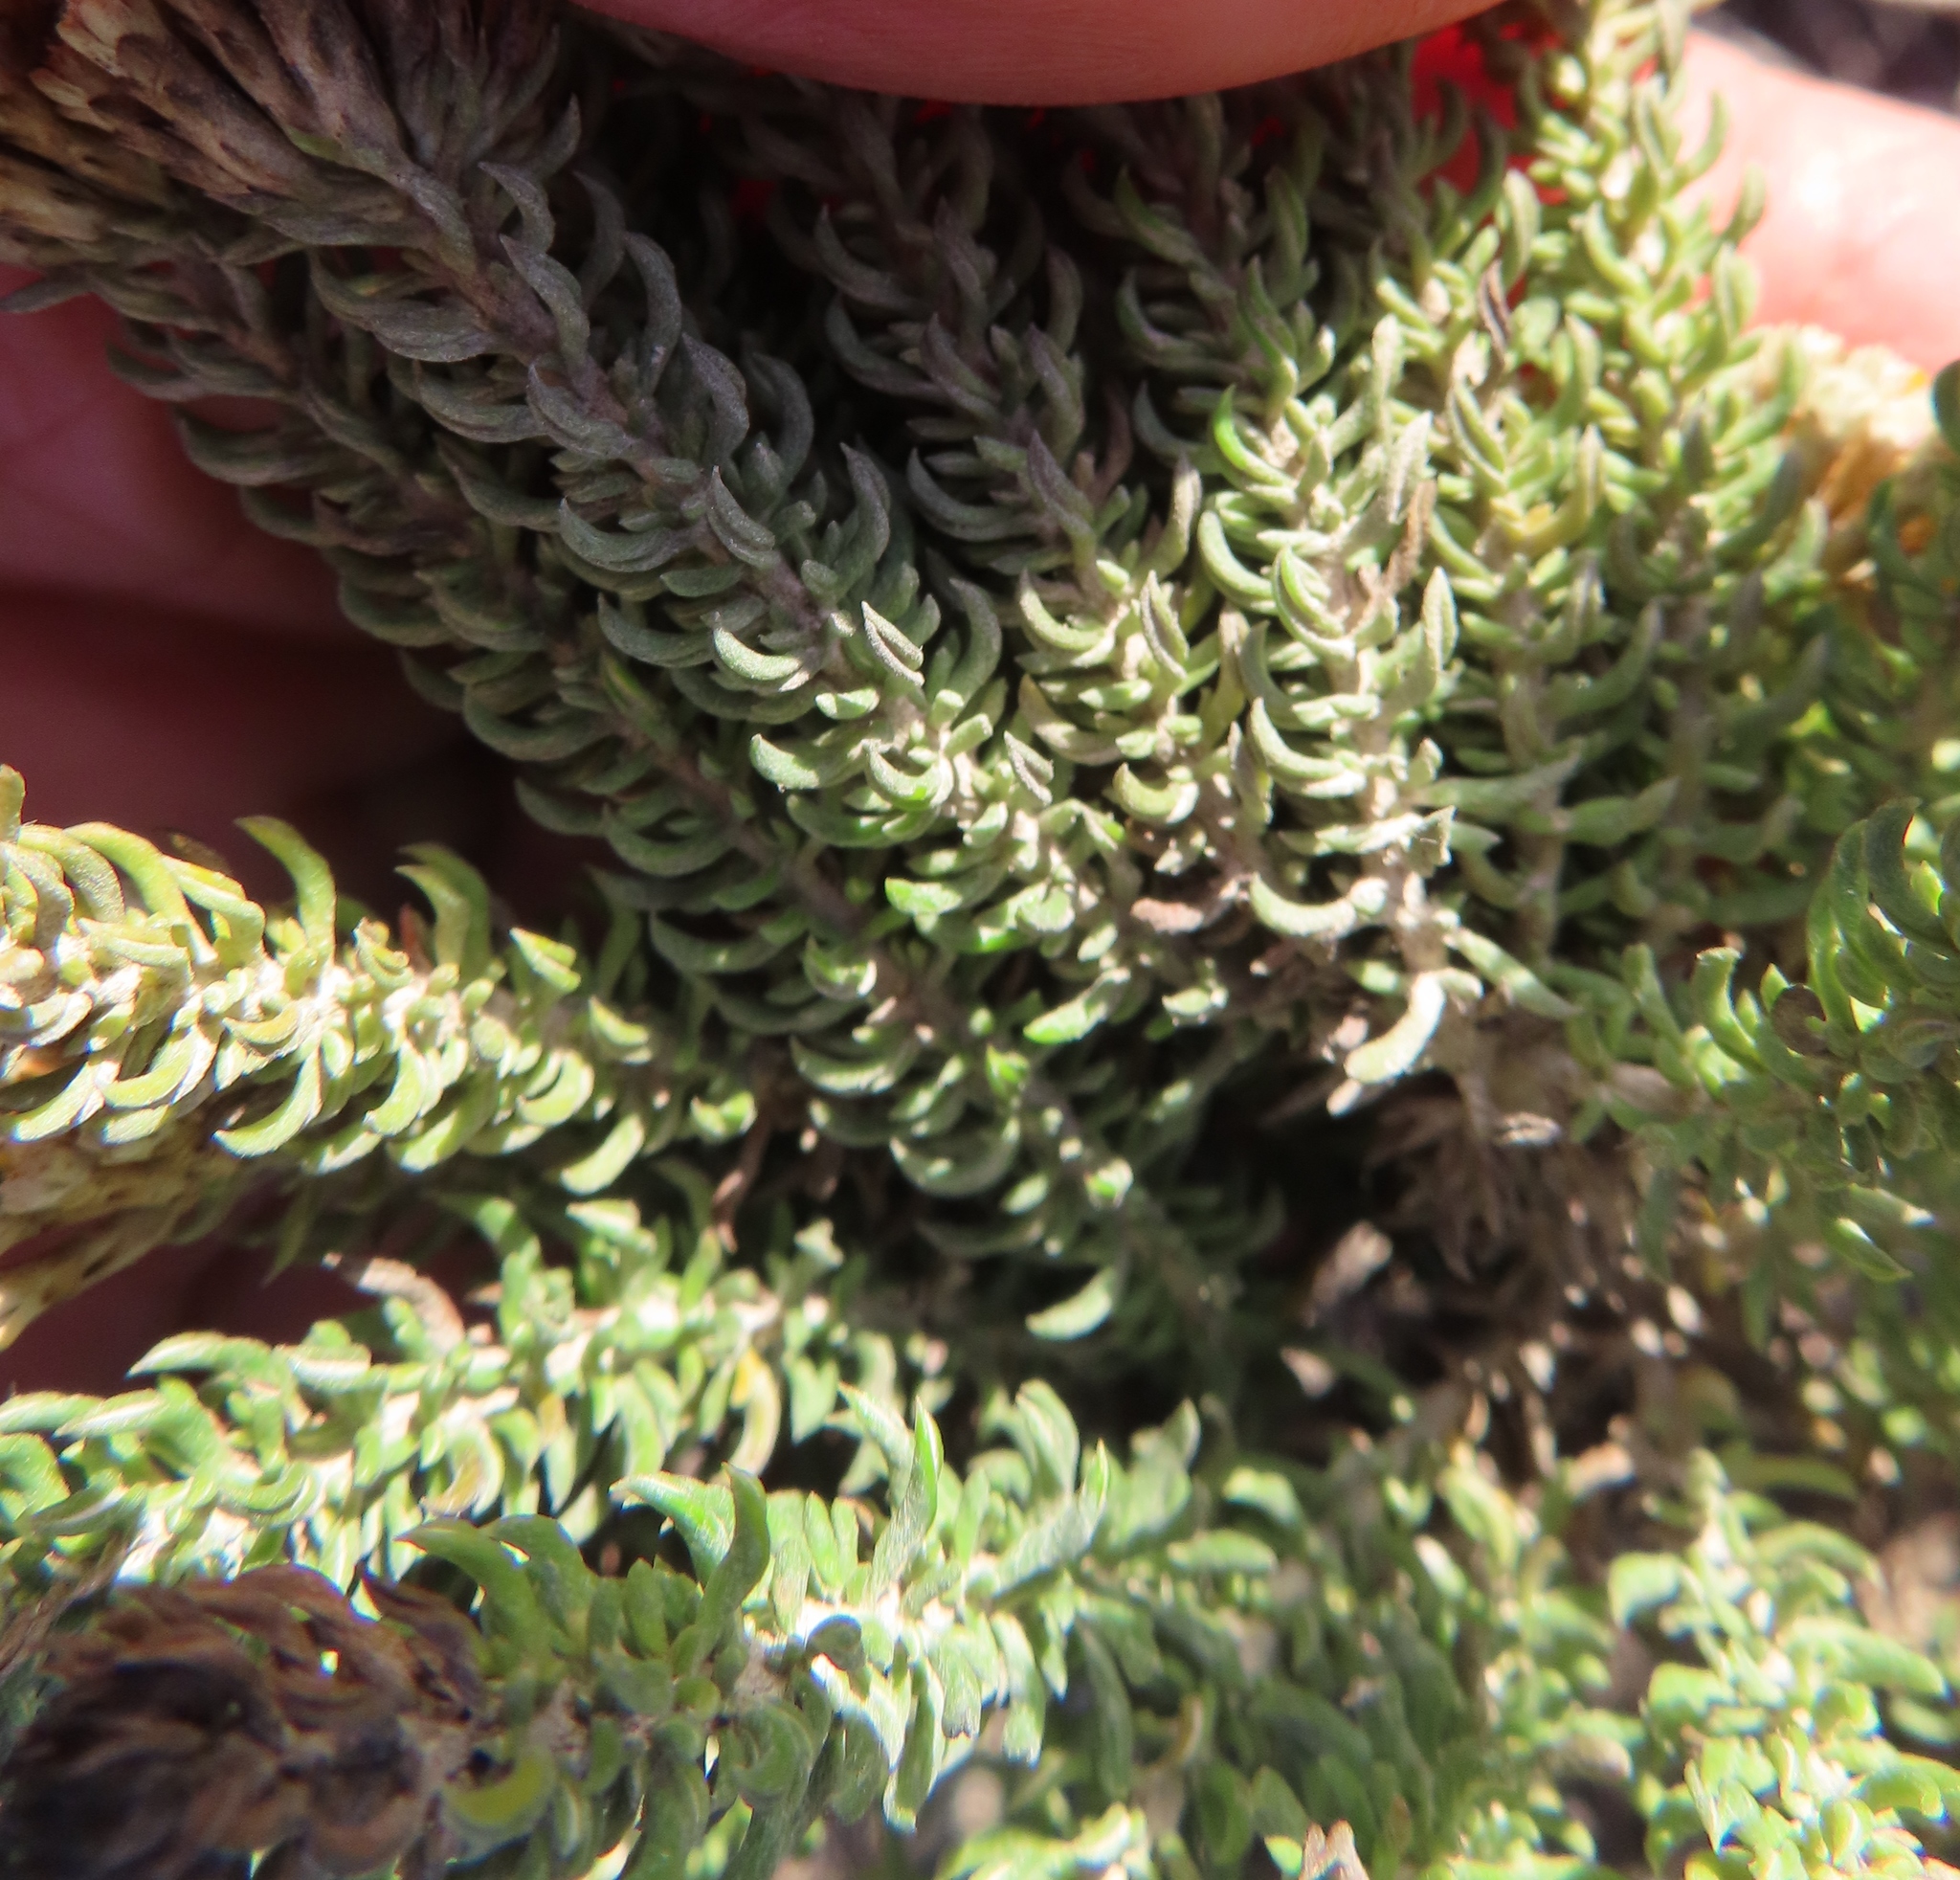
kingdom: Plantae
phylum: Tracheophyta
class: Magnoliopsida
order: Asterales
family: Asteraceae
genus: Metalasia
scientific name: Metalasia muricata
